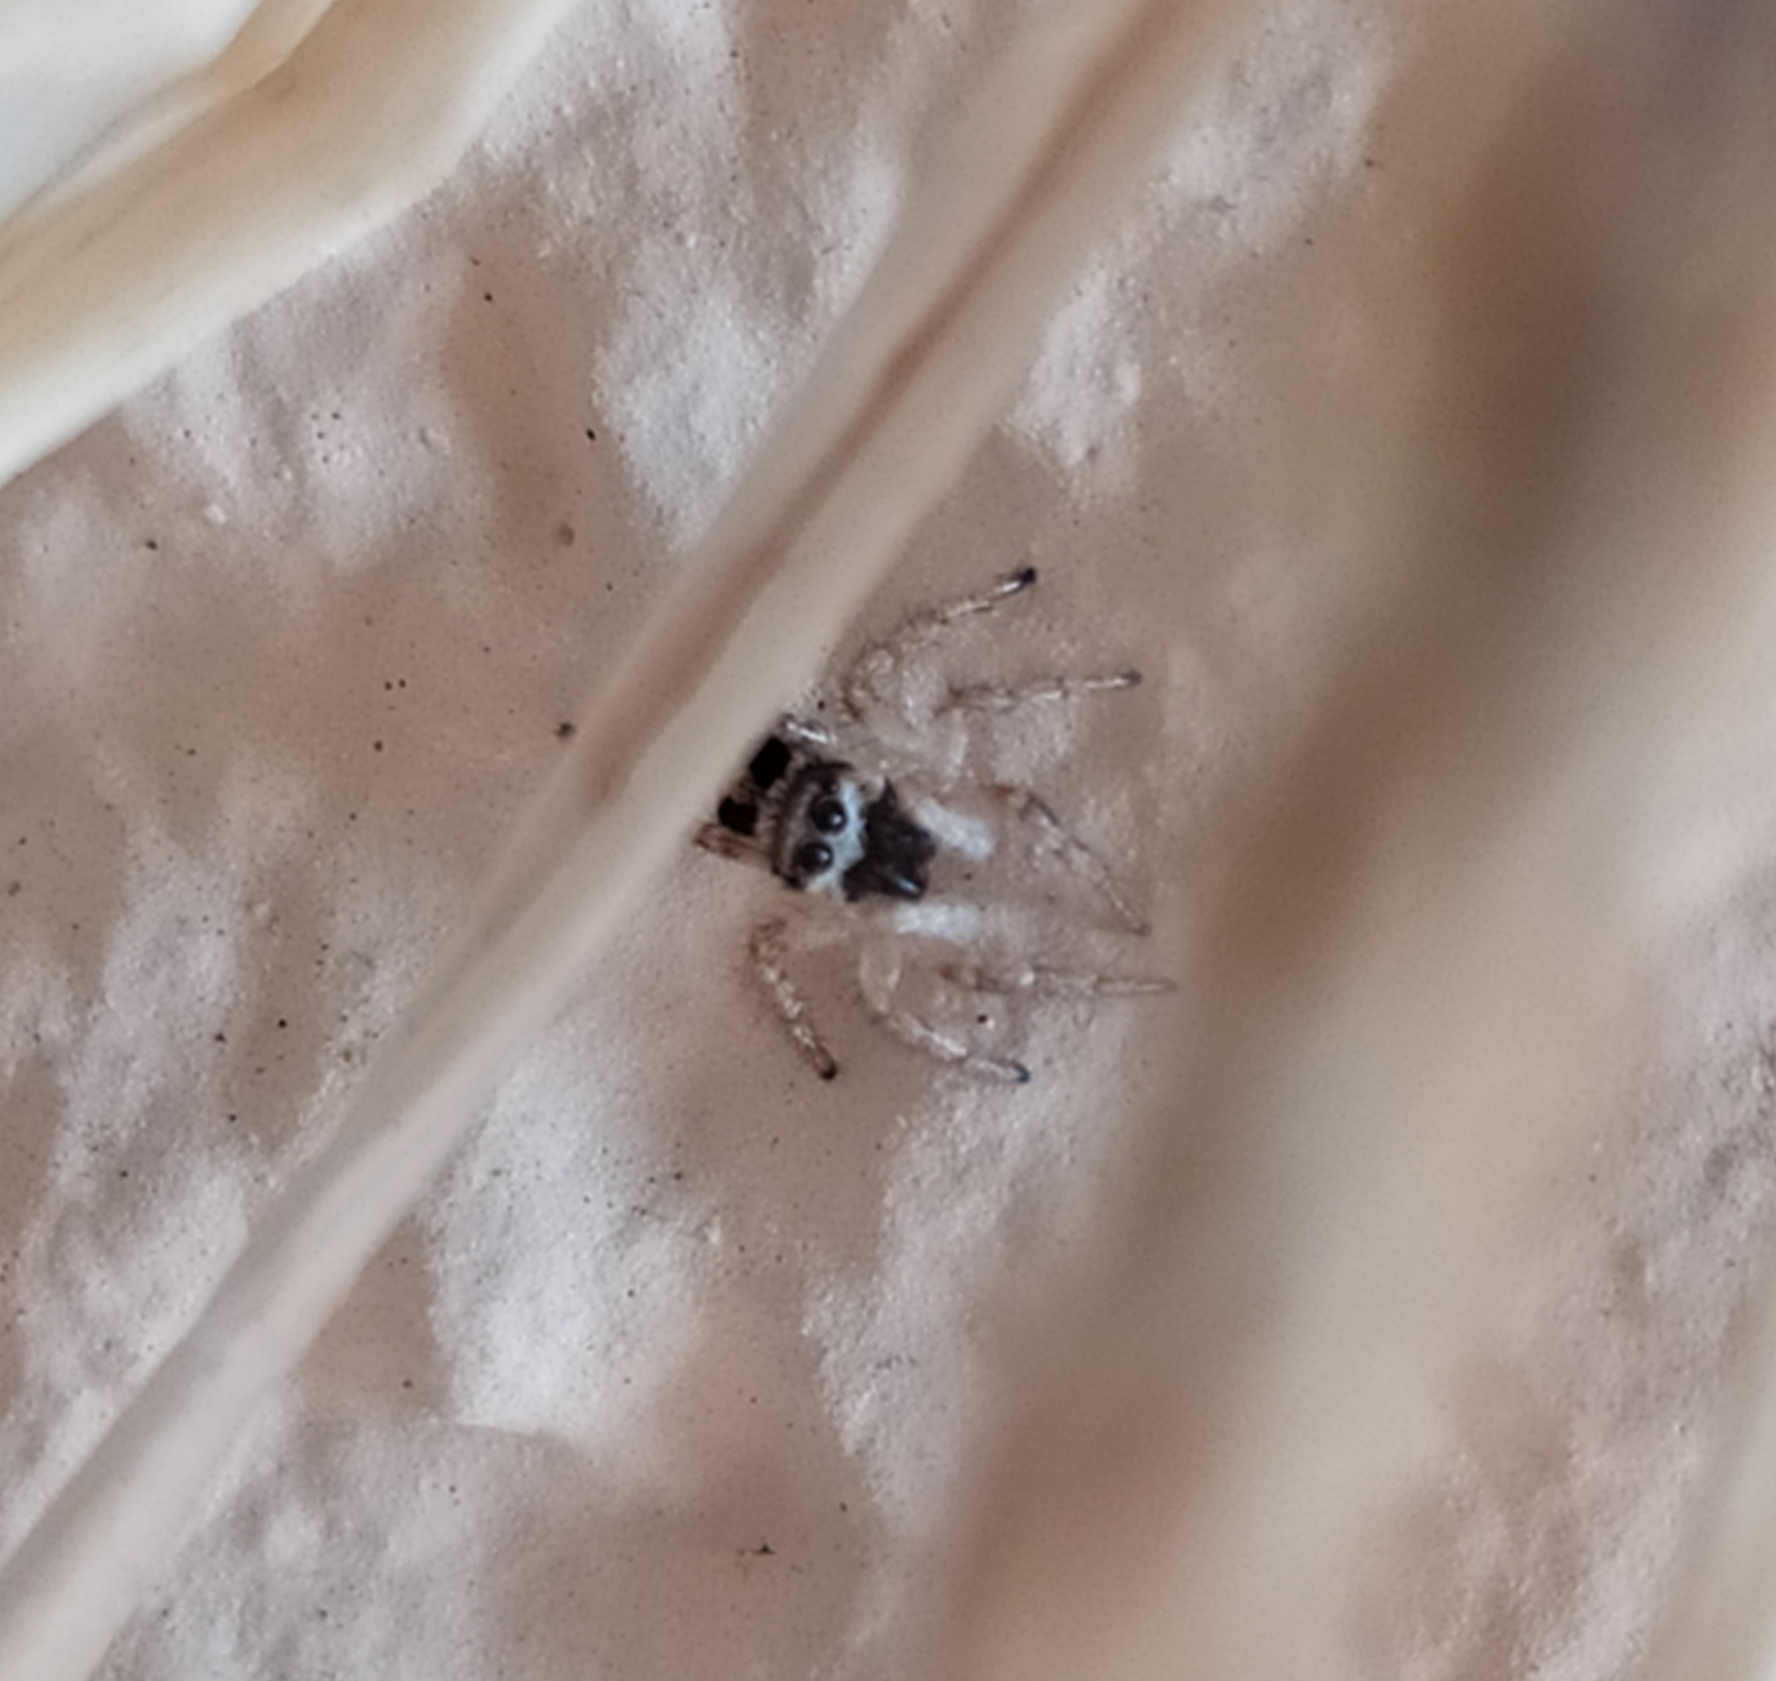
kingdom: Animalia
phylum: Arthropoda
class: Arachnida
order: Araneae
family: Salticidae
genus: Salticus
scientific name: Salticus scenicus
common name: Zebra jumper
